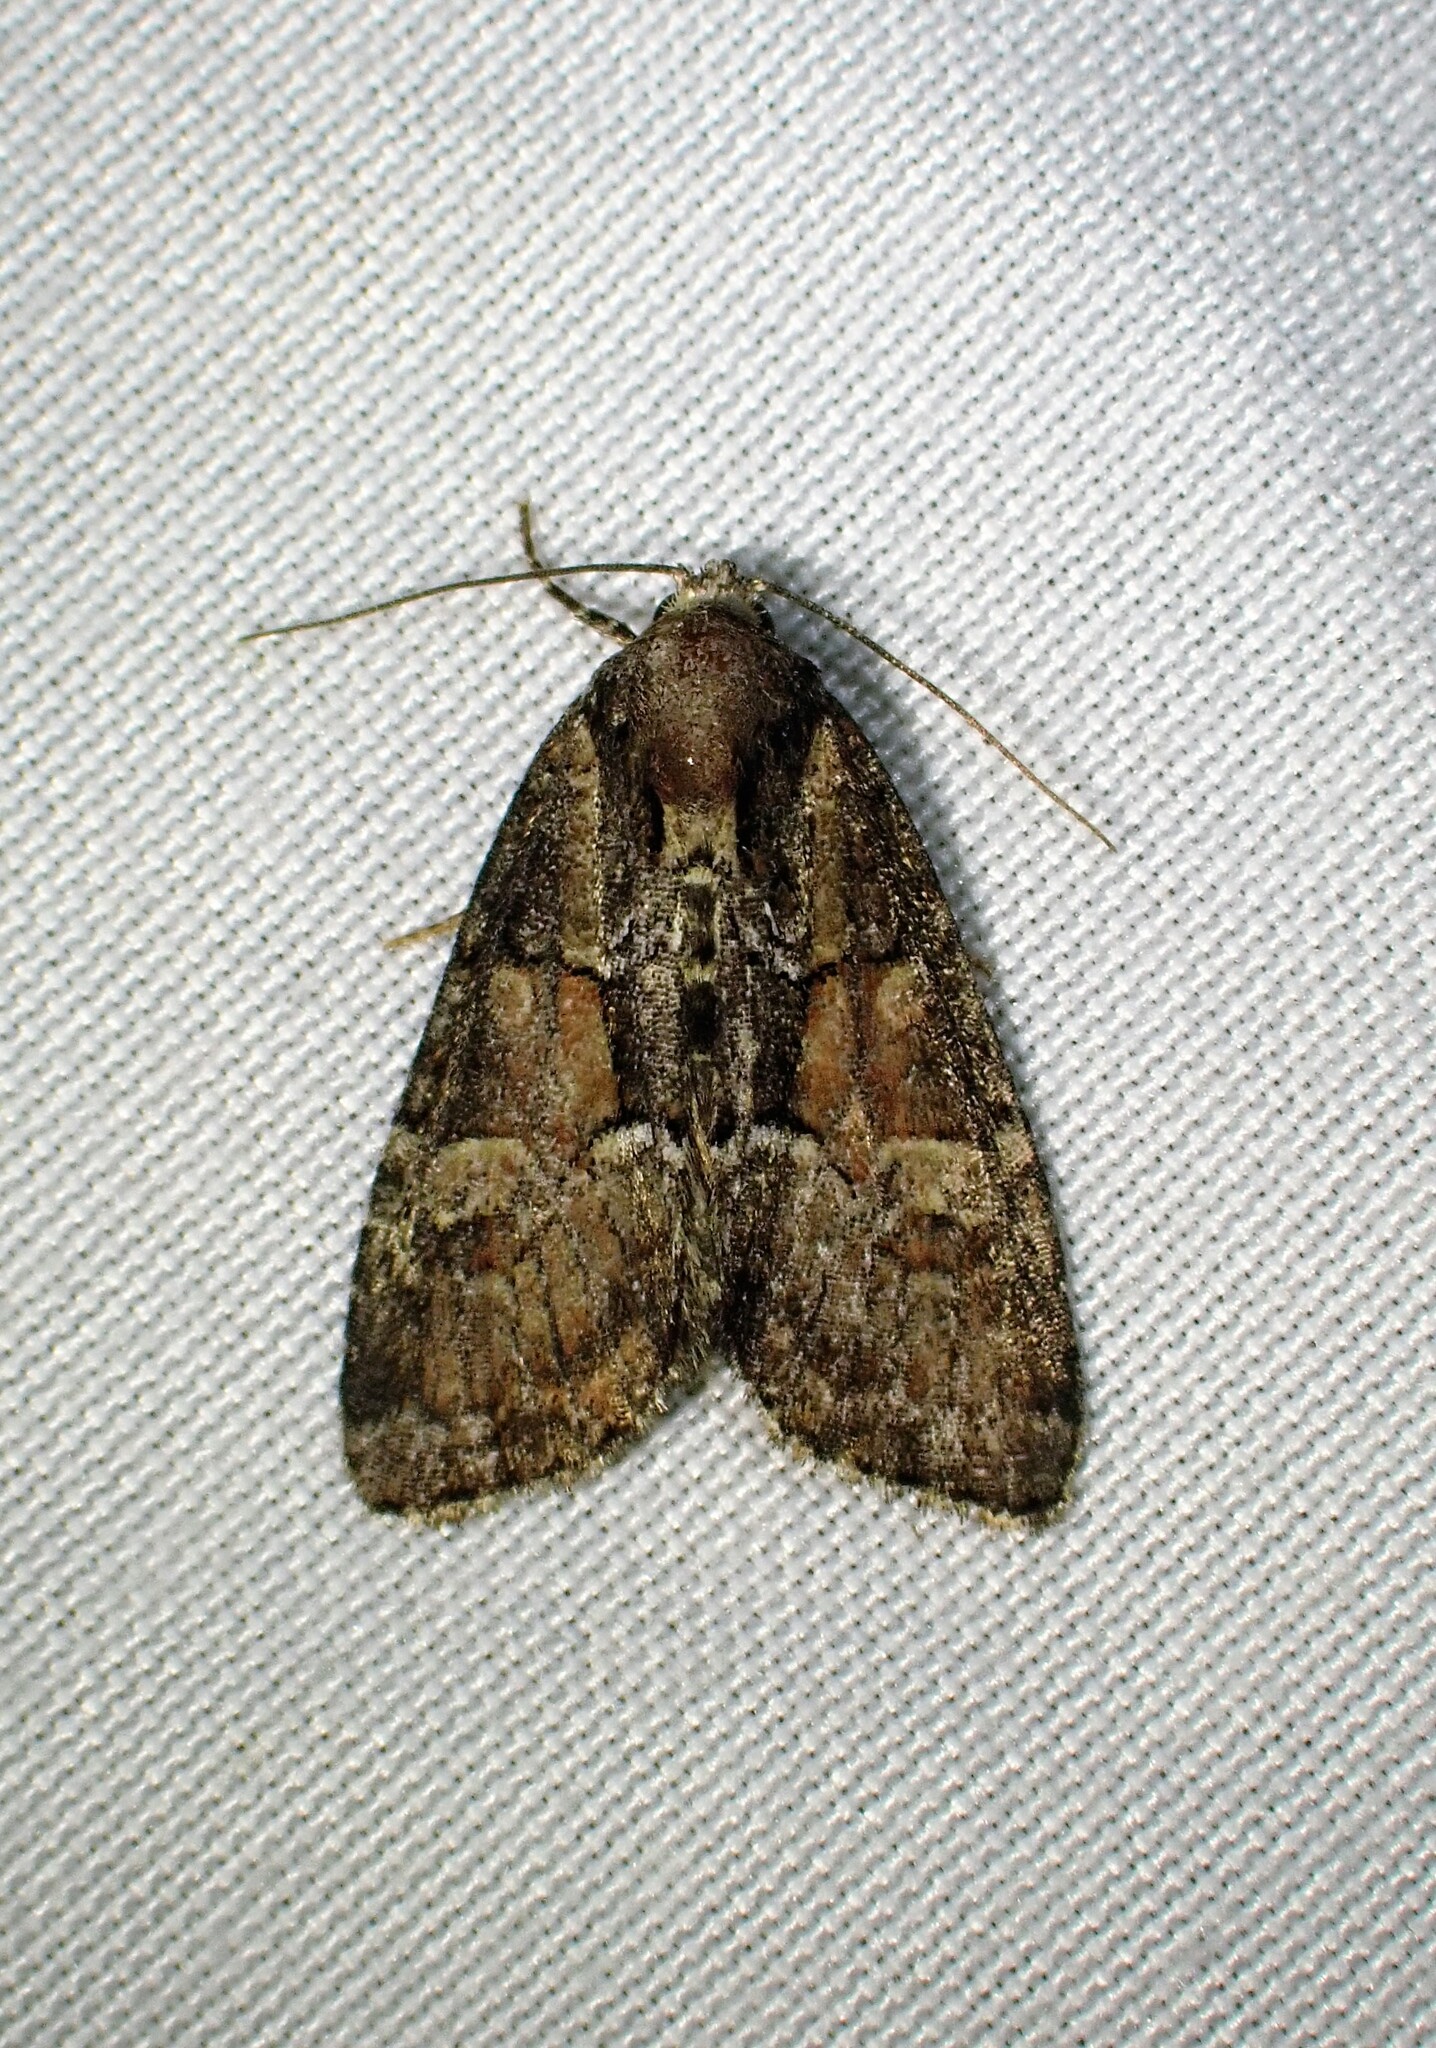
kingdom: Animalia
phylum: Arthropoda
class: Insecta
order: Lepidoptera
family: Noctuidae
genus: Neoligia
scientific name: Neoligia subjuncta
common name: Connected brocade
